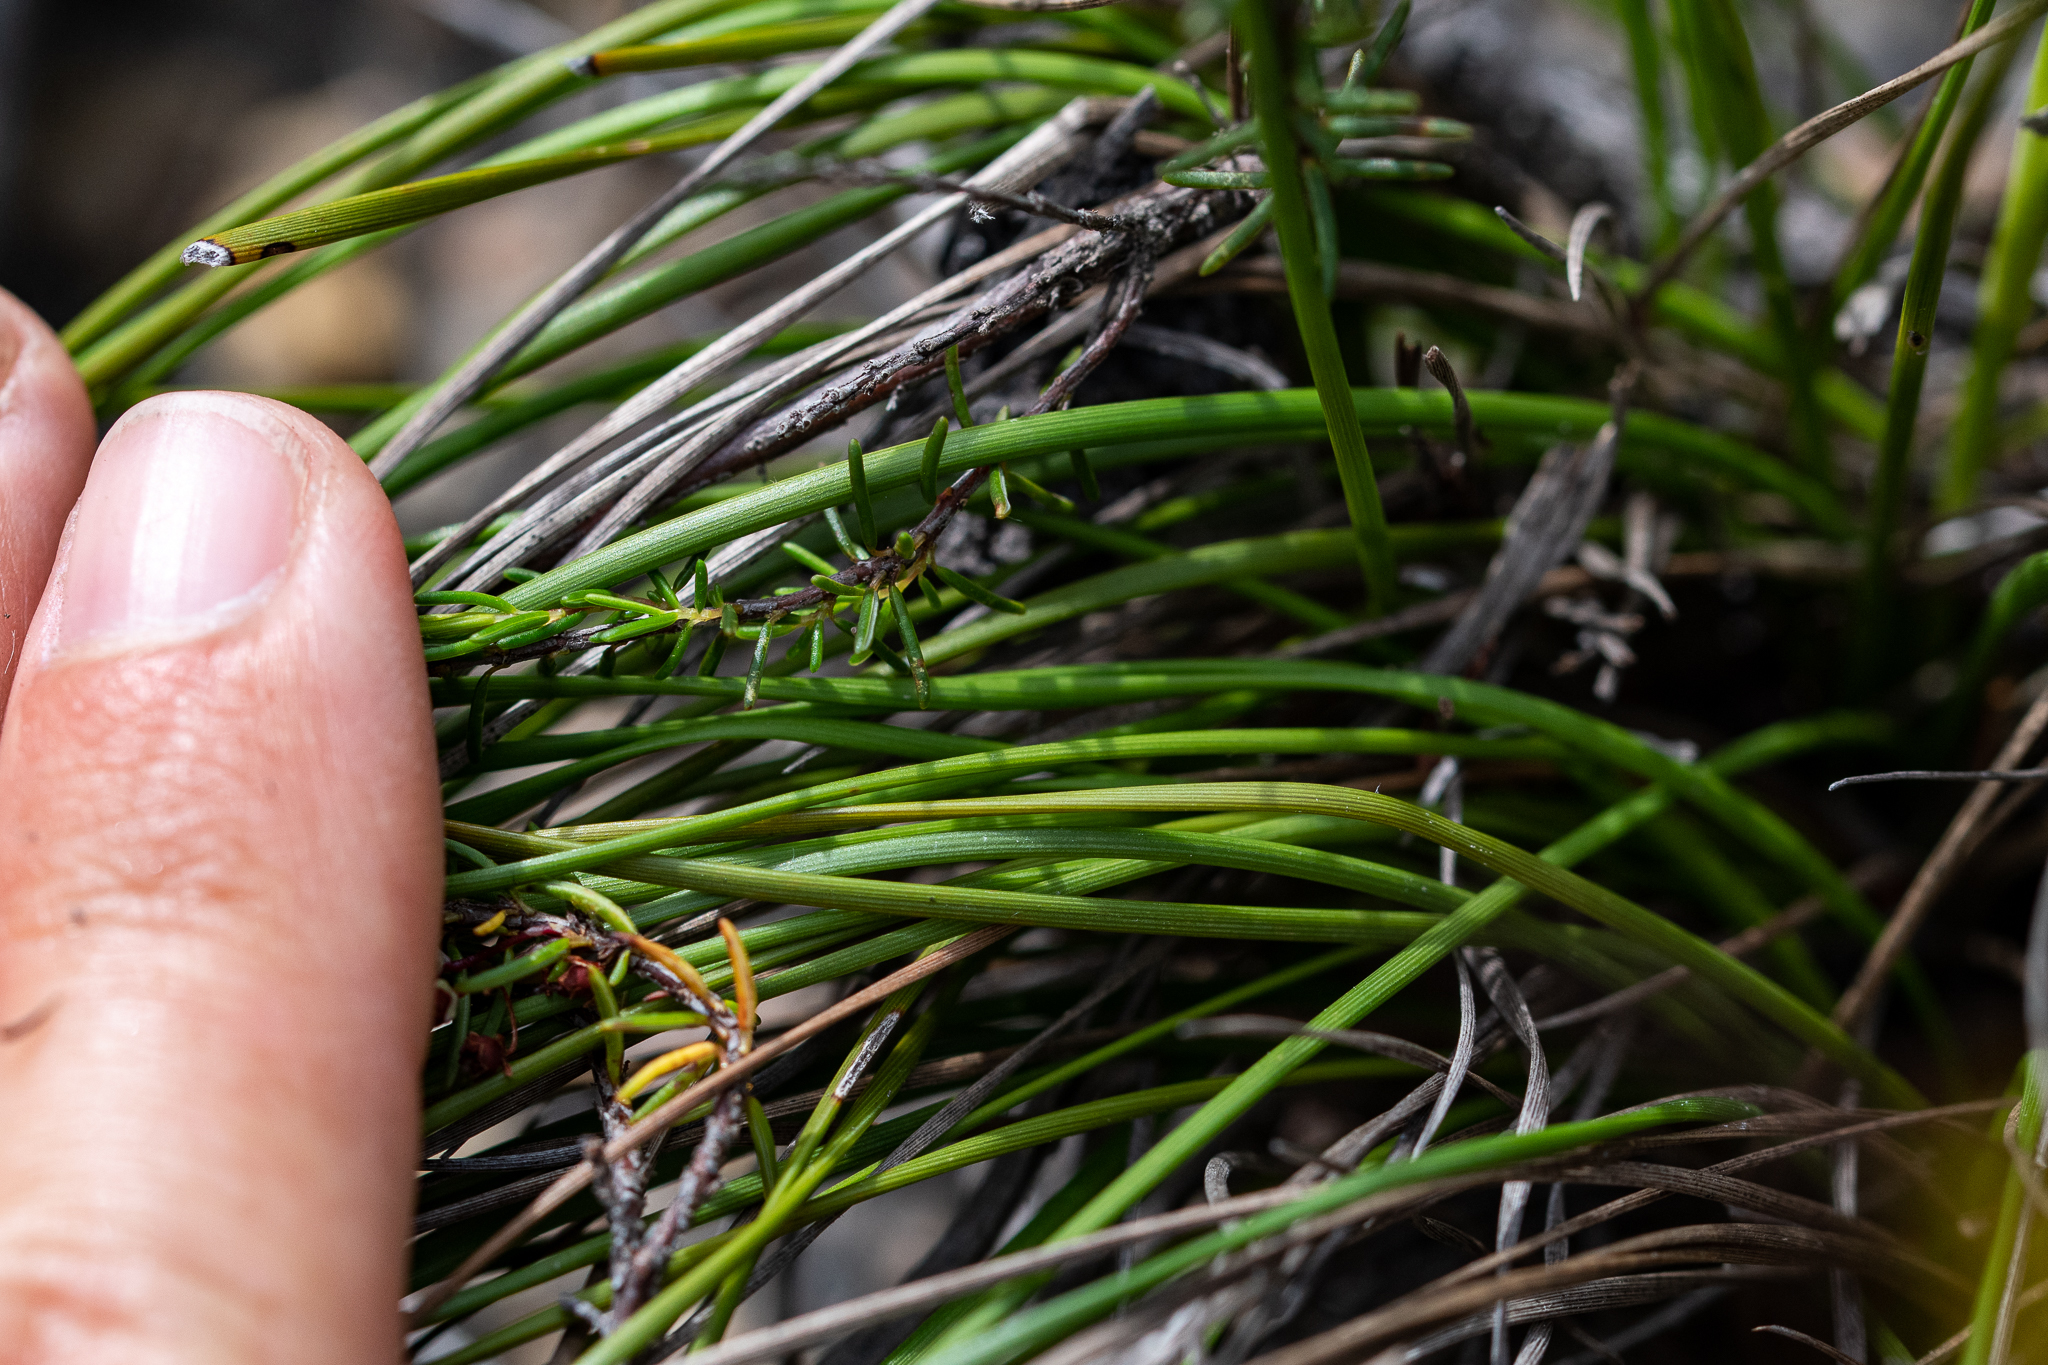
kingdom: Plantae
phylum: Tracheophyta
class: Liliopsida
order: Asparagales
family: Iridaceae
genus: Aristea
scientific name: Aristea juncifolia
